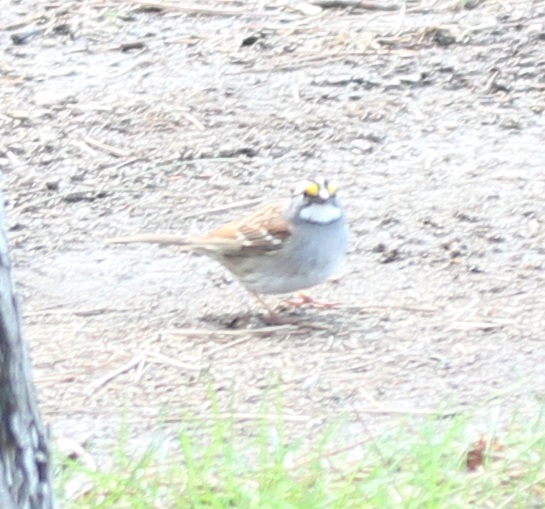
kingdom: Animalia
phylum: Chordata
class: Aves
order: Passeriformes
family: Passerellidae
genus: Zonotrichia
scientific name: Zonotrichia albicollis
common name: White-throated sparrow
